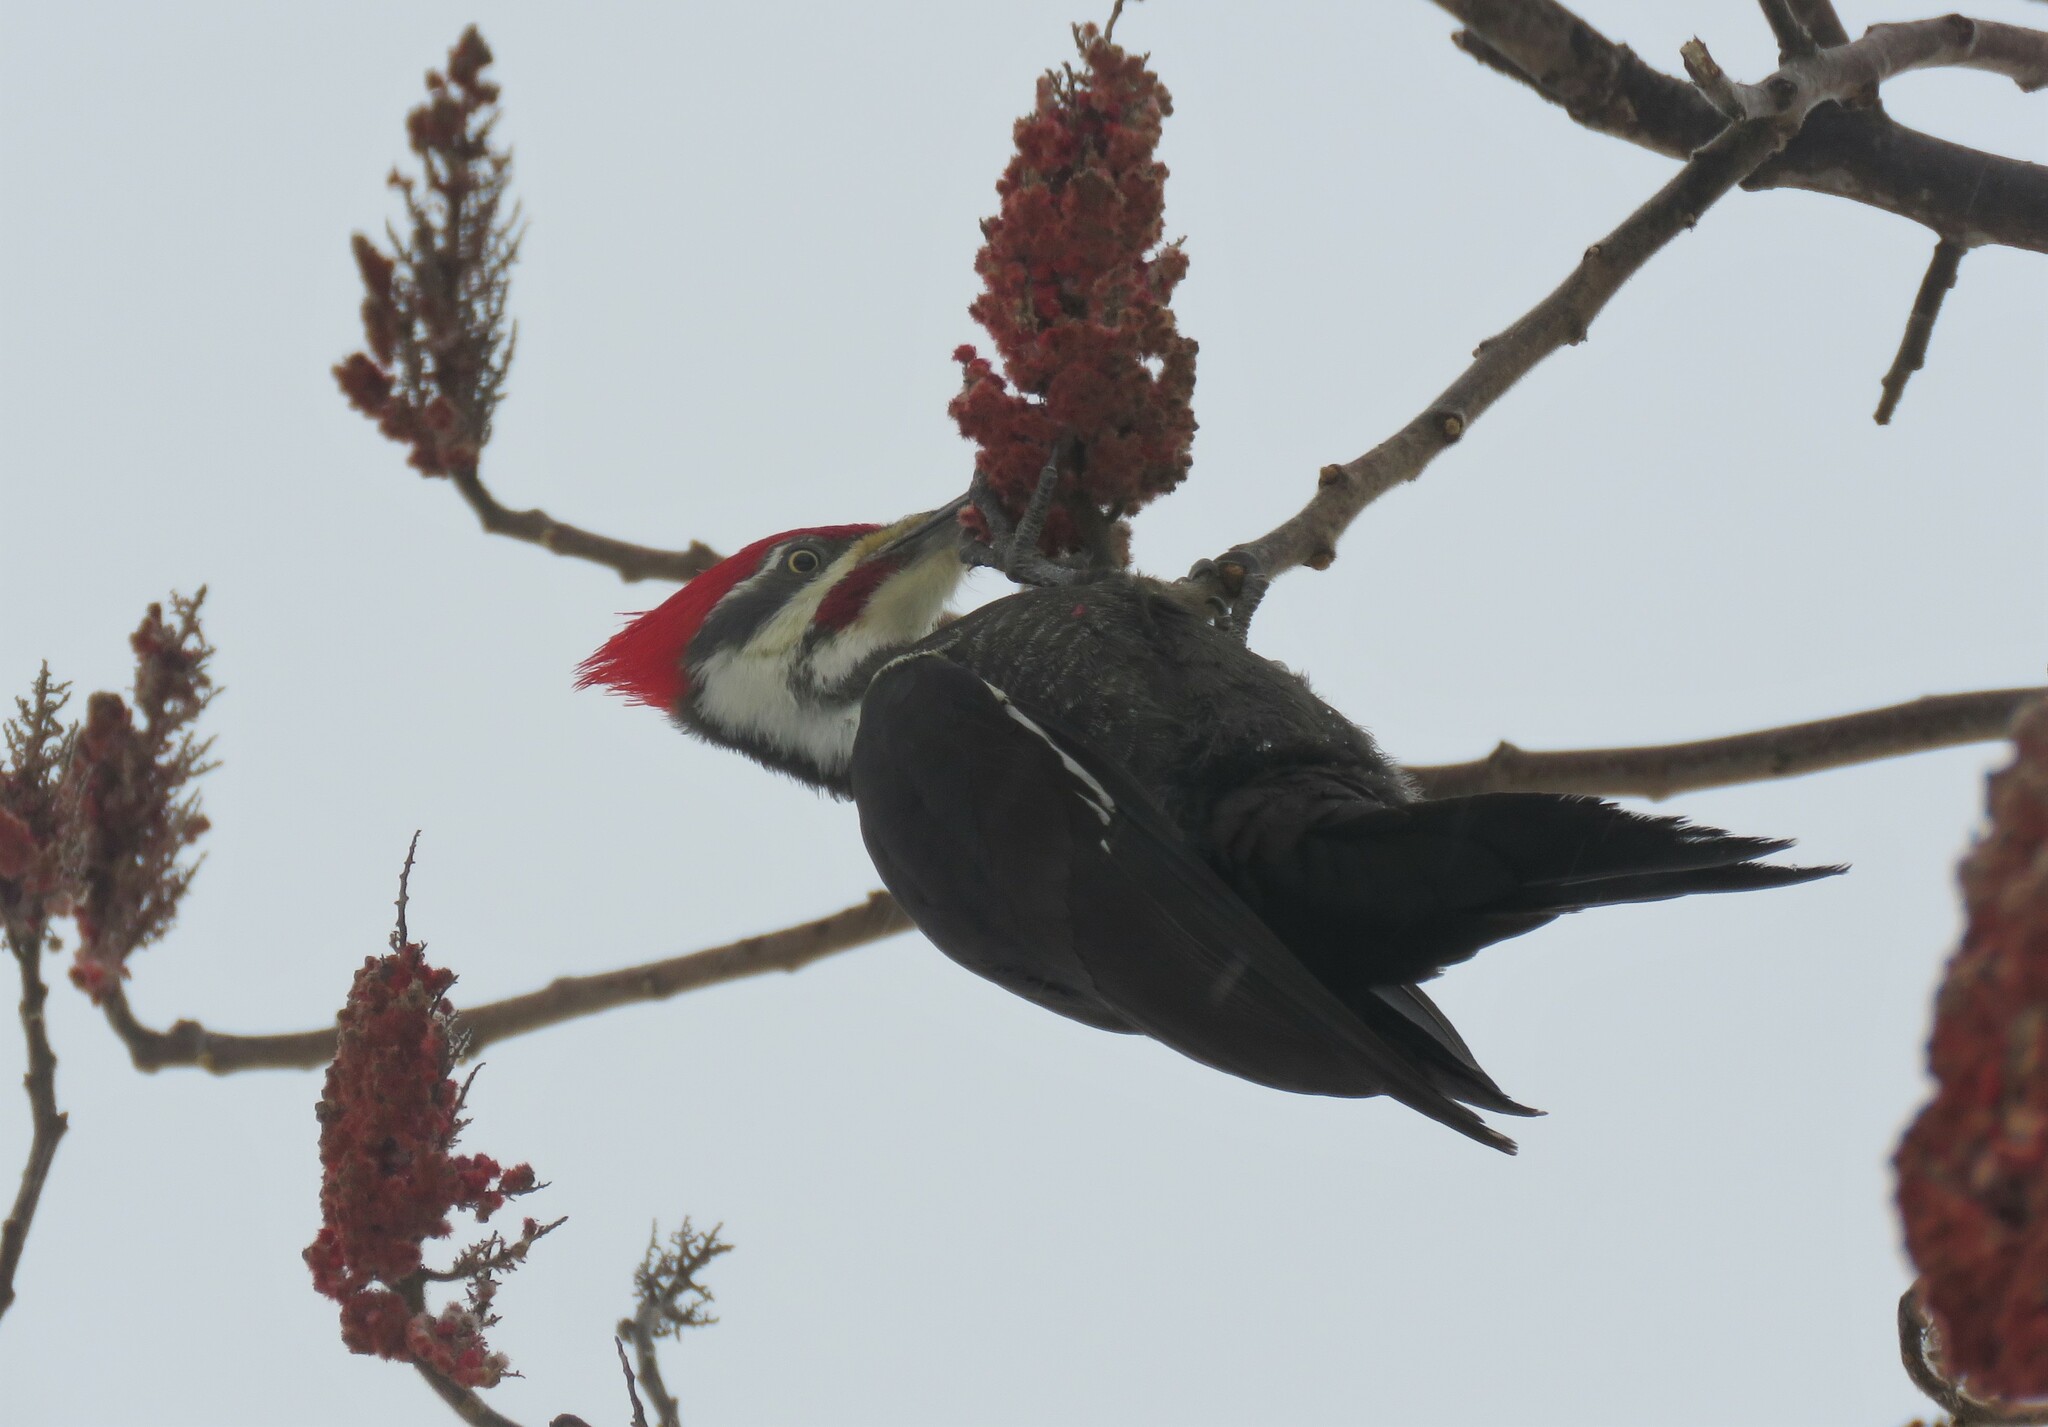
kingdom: Animalia
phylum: Chordata
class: Aves
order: Piciformes
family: Picidae
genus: Dryocopus
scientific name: Dryocopus pileatus
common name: Pileated woodpecker
